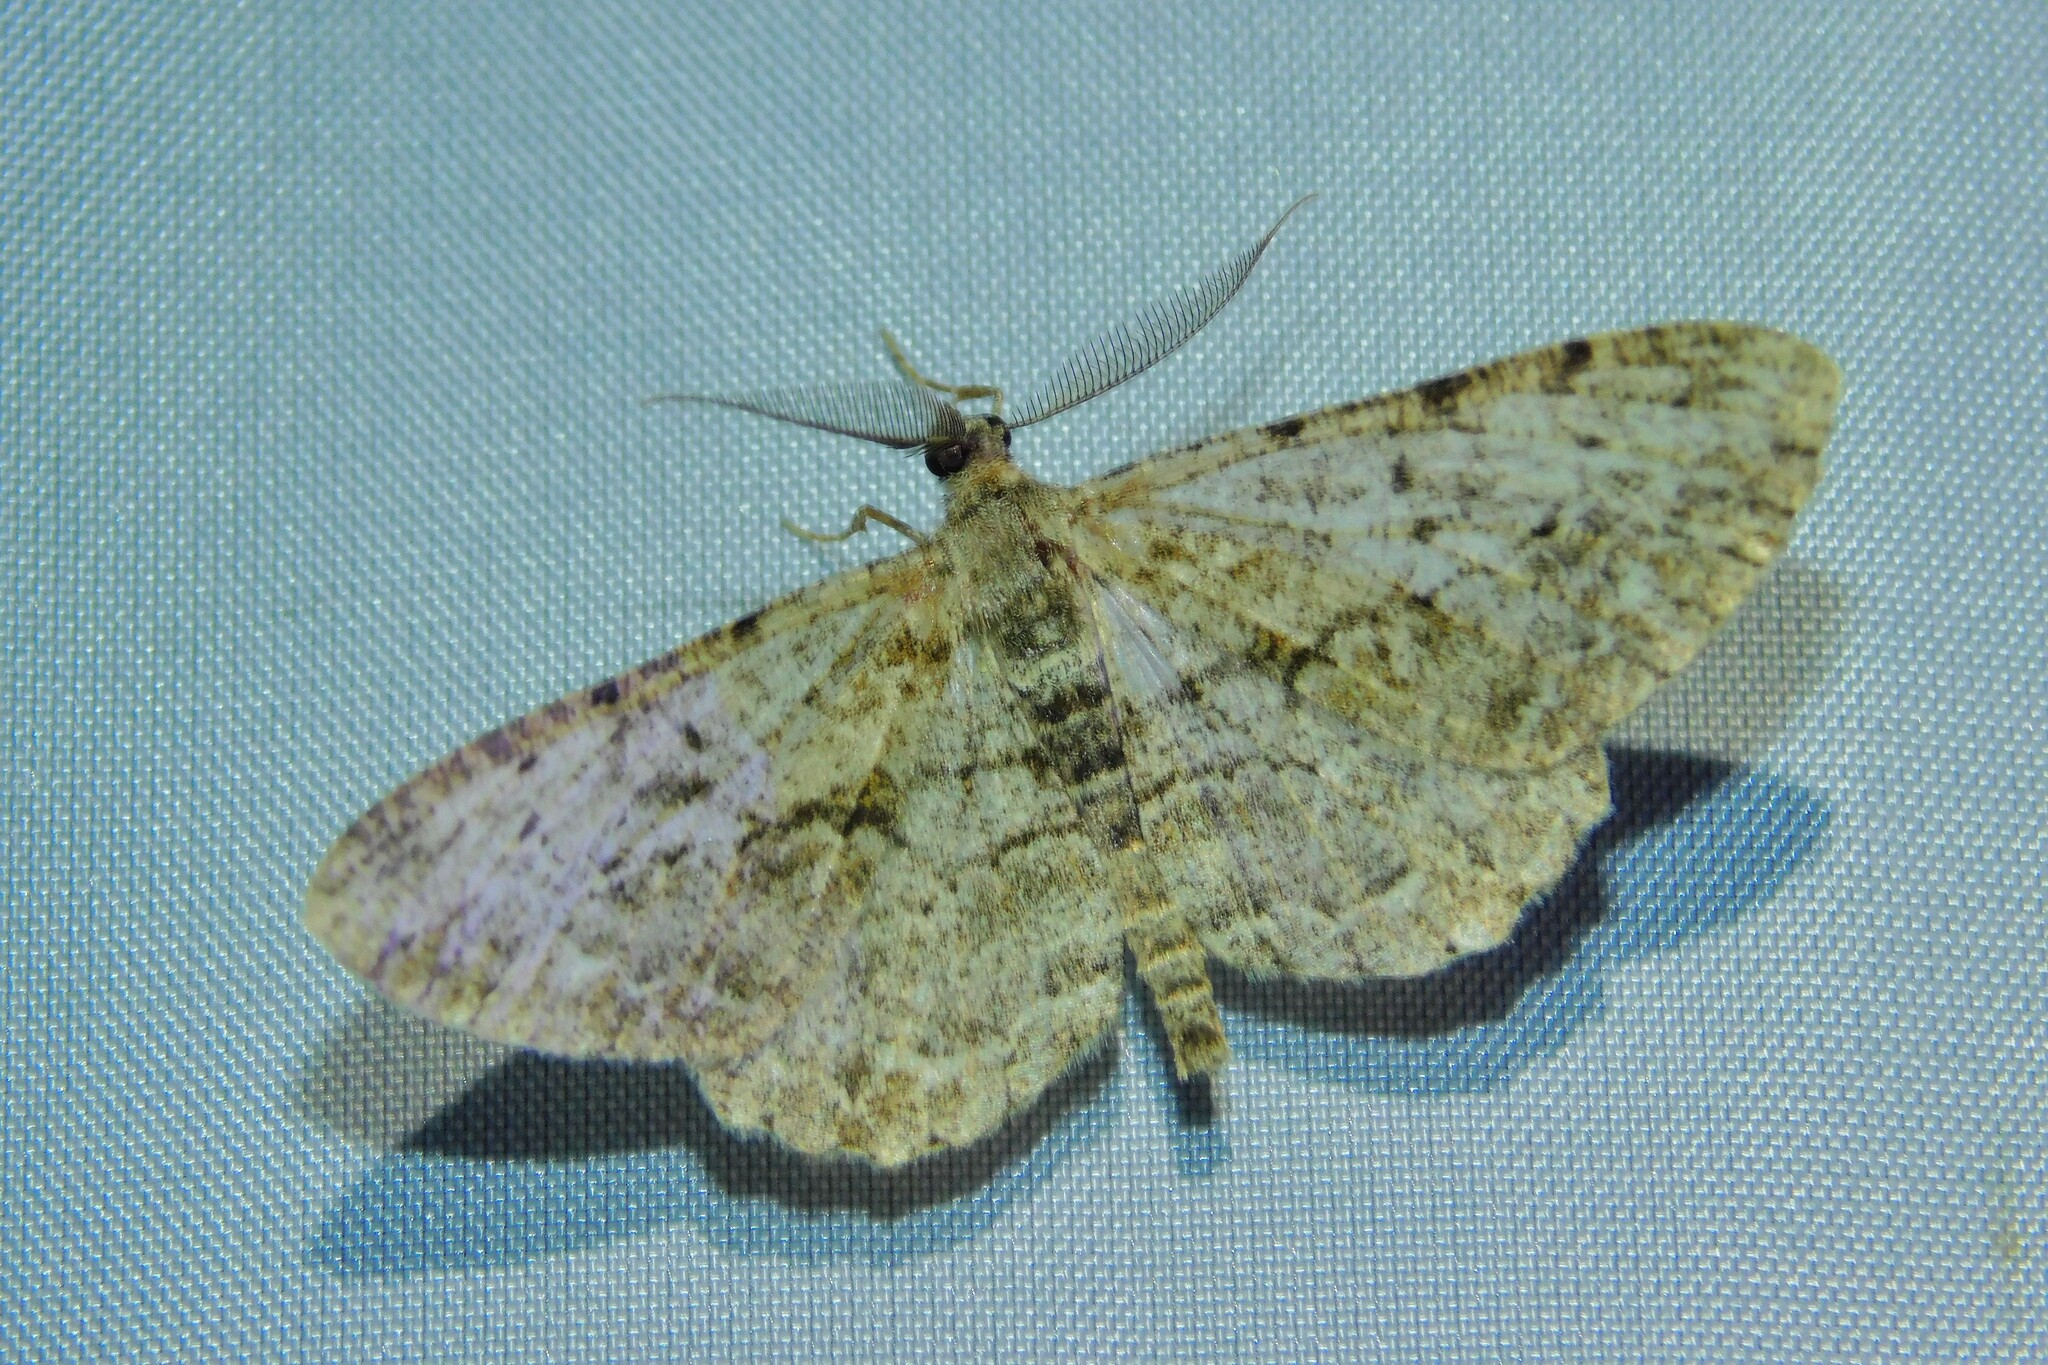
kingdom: Animalia
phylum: Arthropoda
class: Insecta
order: Lepidoptera
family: Geometridae
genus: Peribatodes
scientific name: Peribatodes rhomboidaria
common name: Willow beauty
